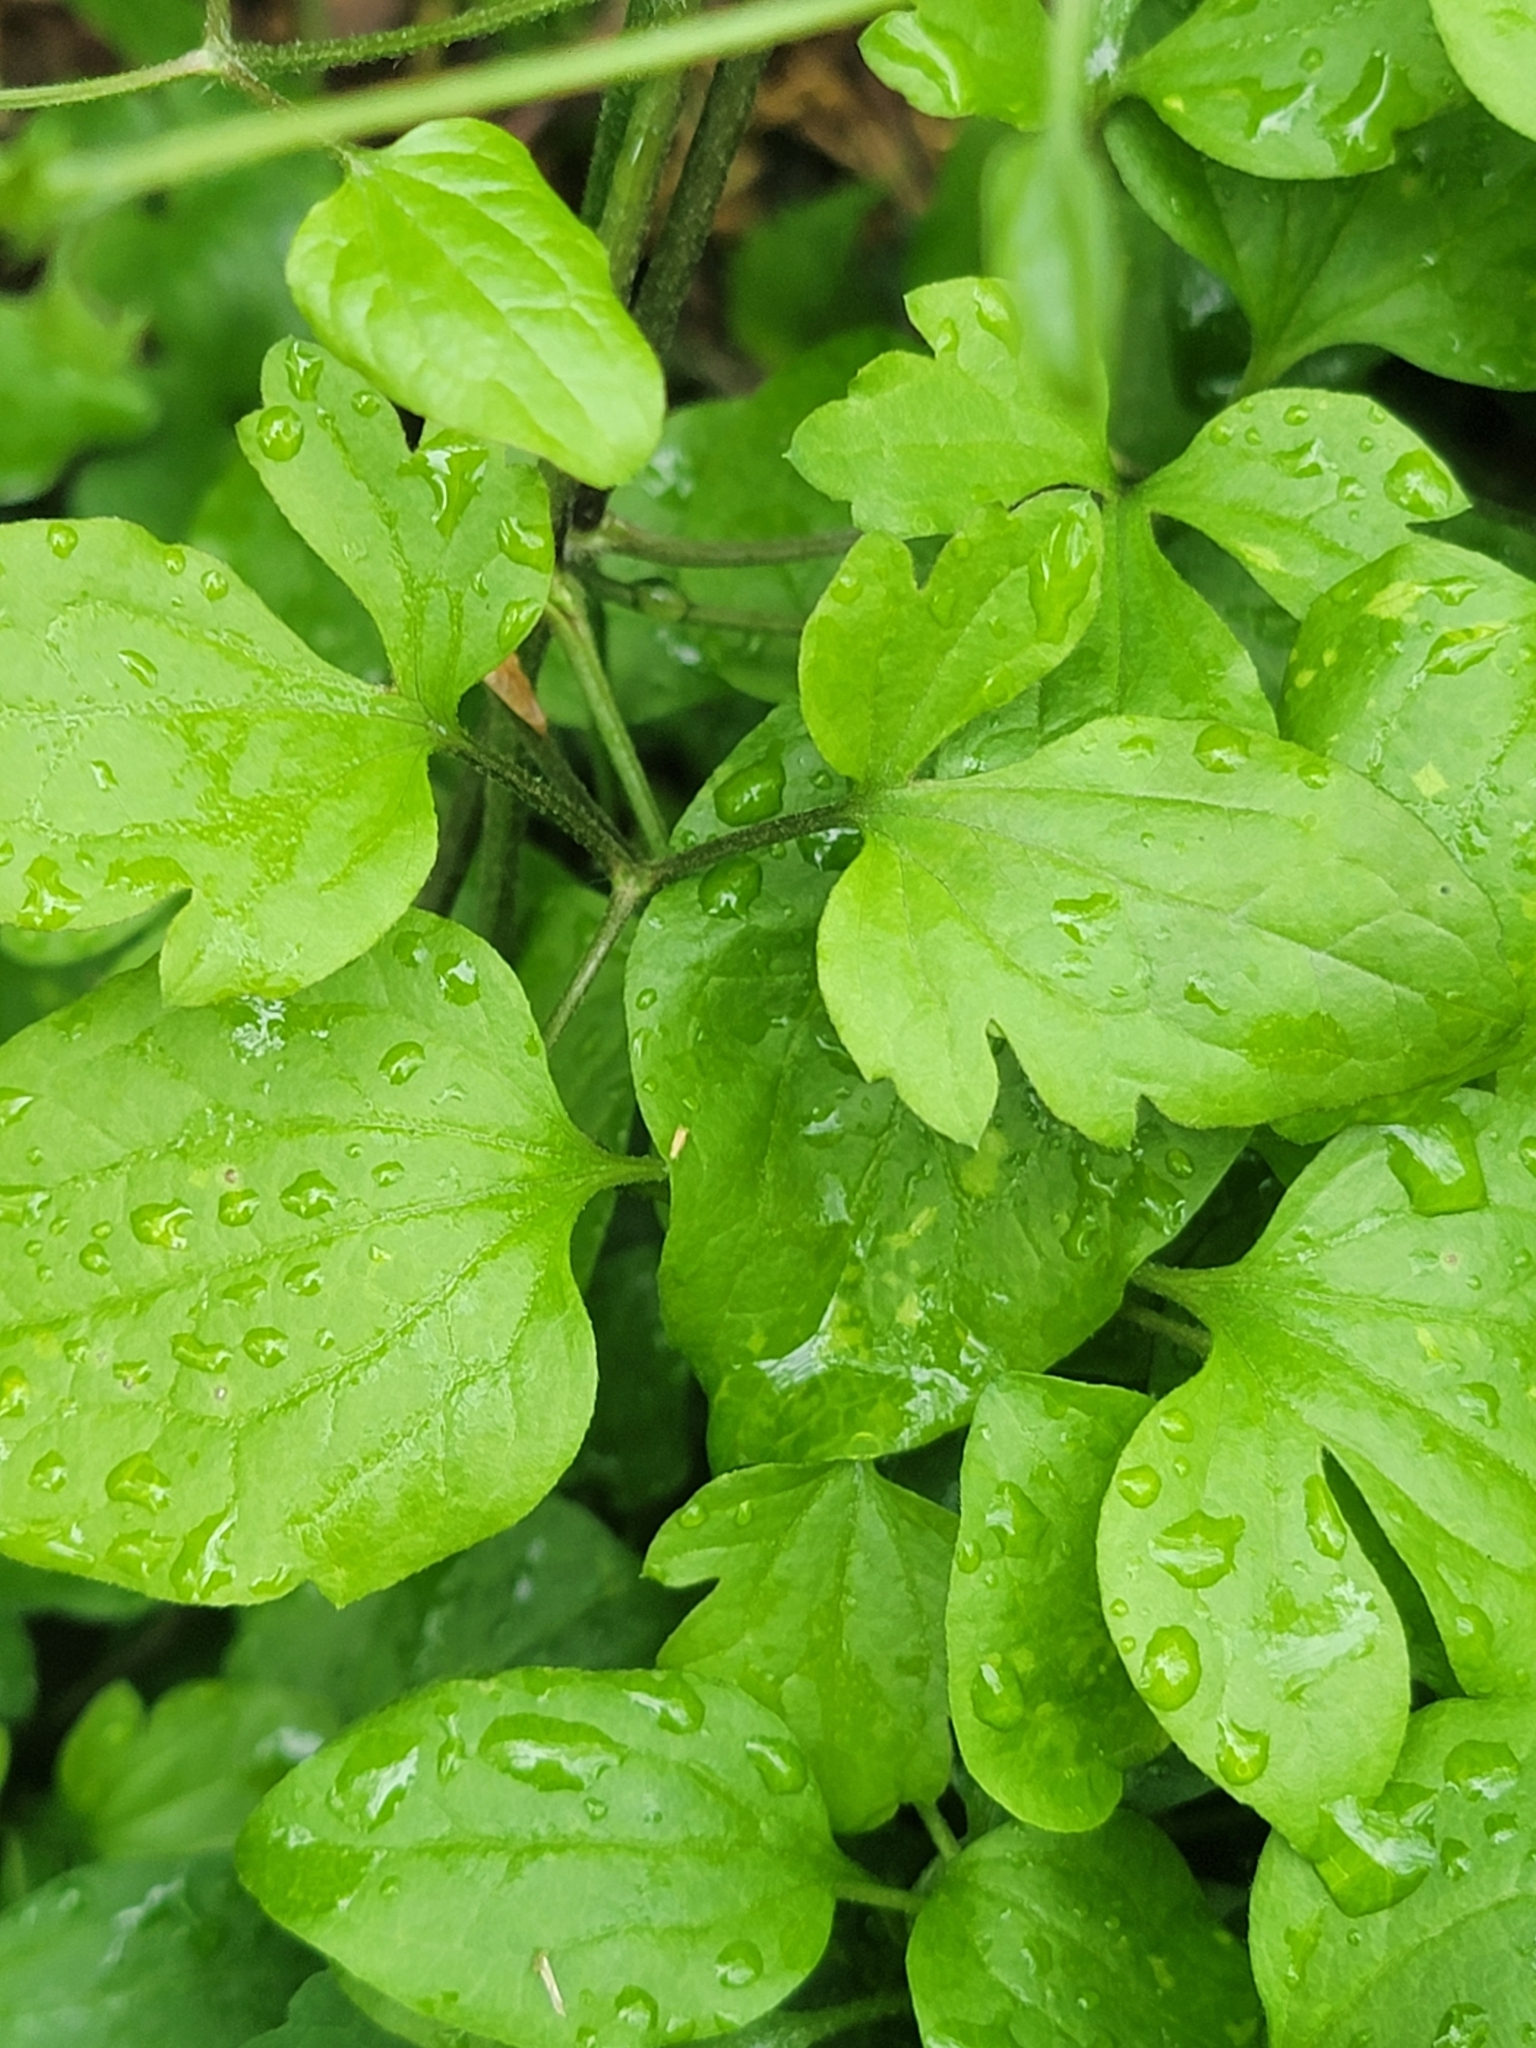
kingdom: Plantae
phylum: Tracheophyta
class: Magnoliopsida
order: Ranunculales
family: Ranunculaceae
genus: Clematis
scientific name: Clematis terniflora
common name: Sweet autumn clematis
